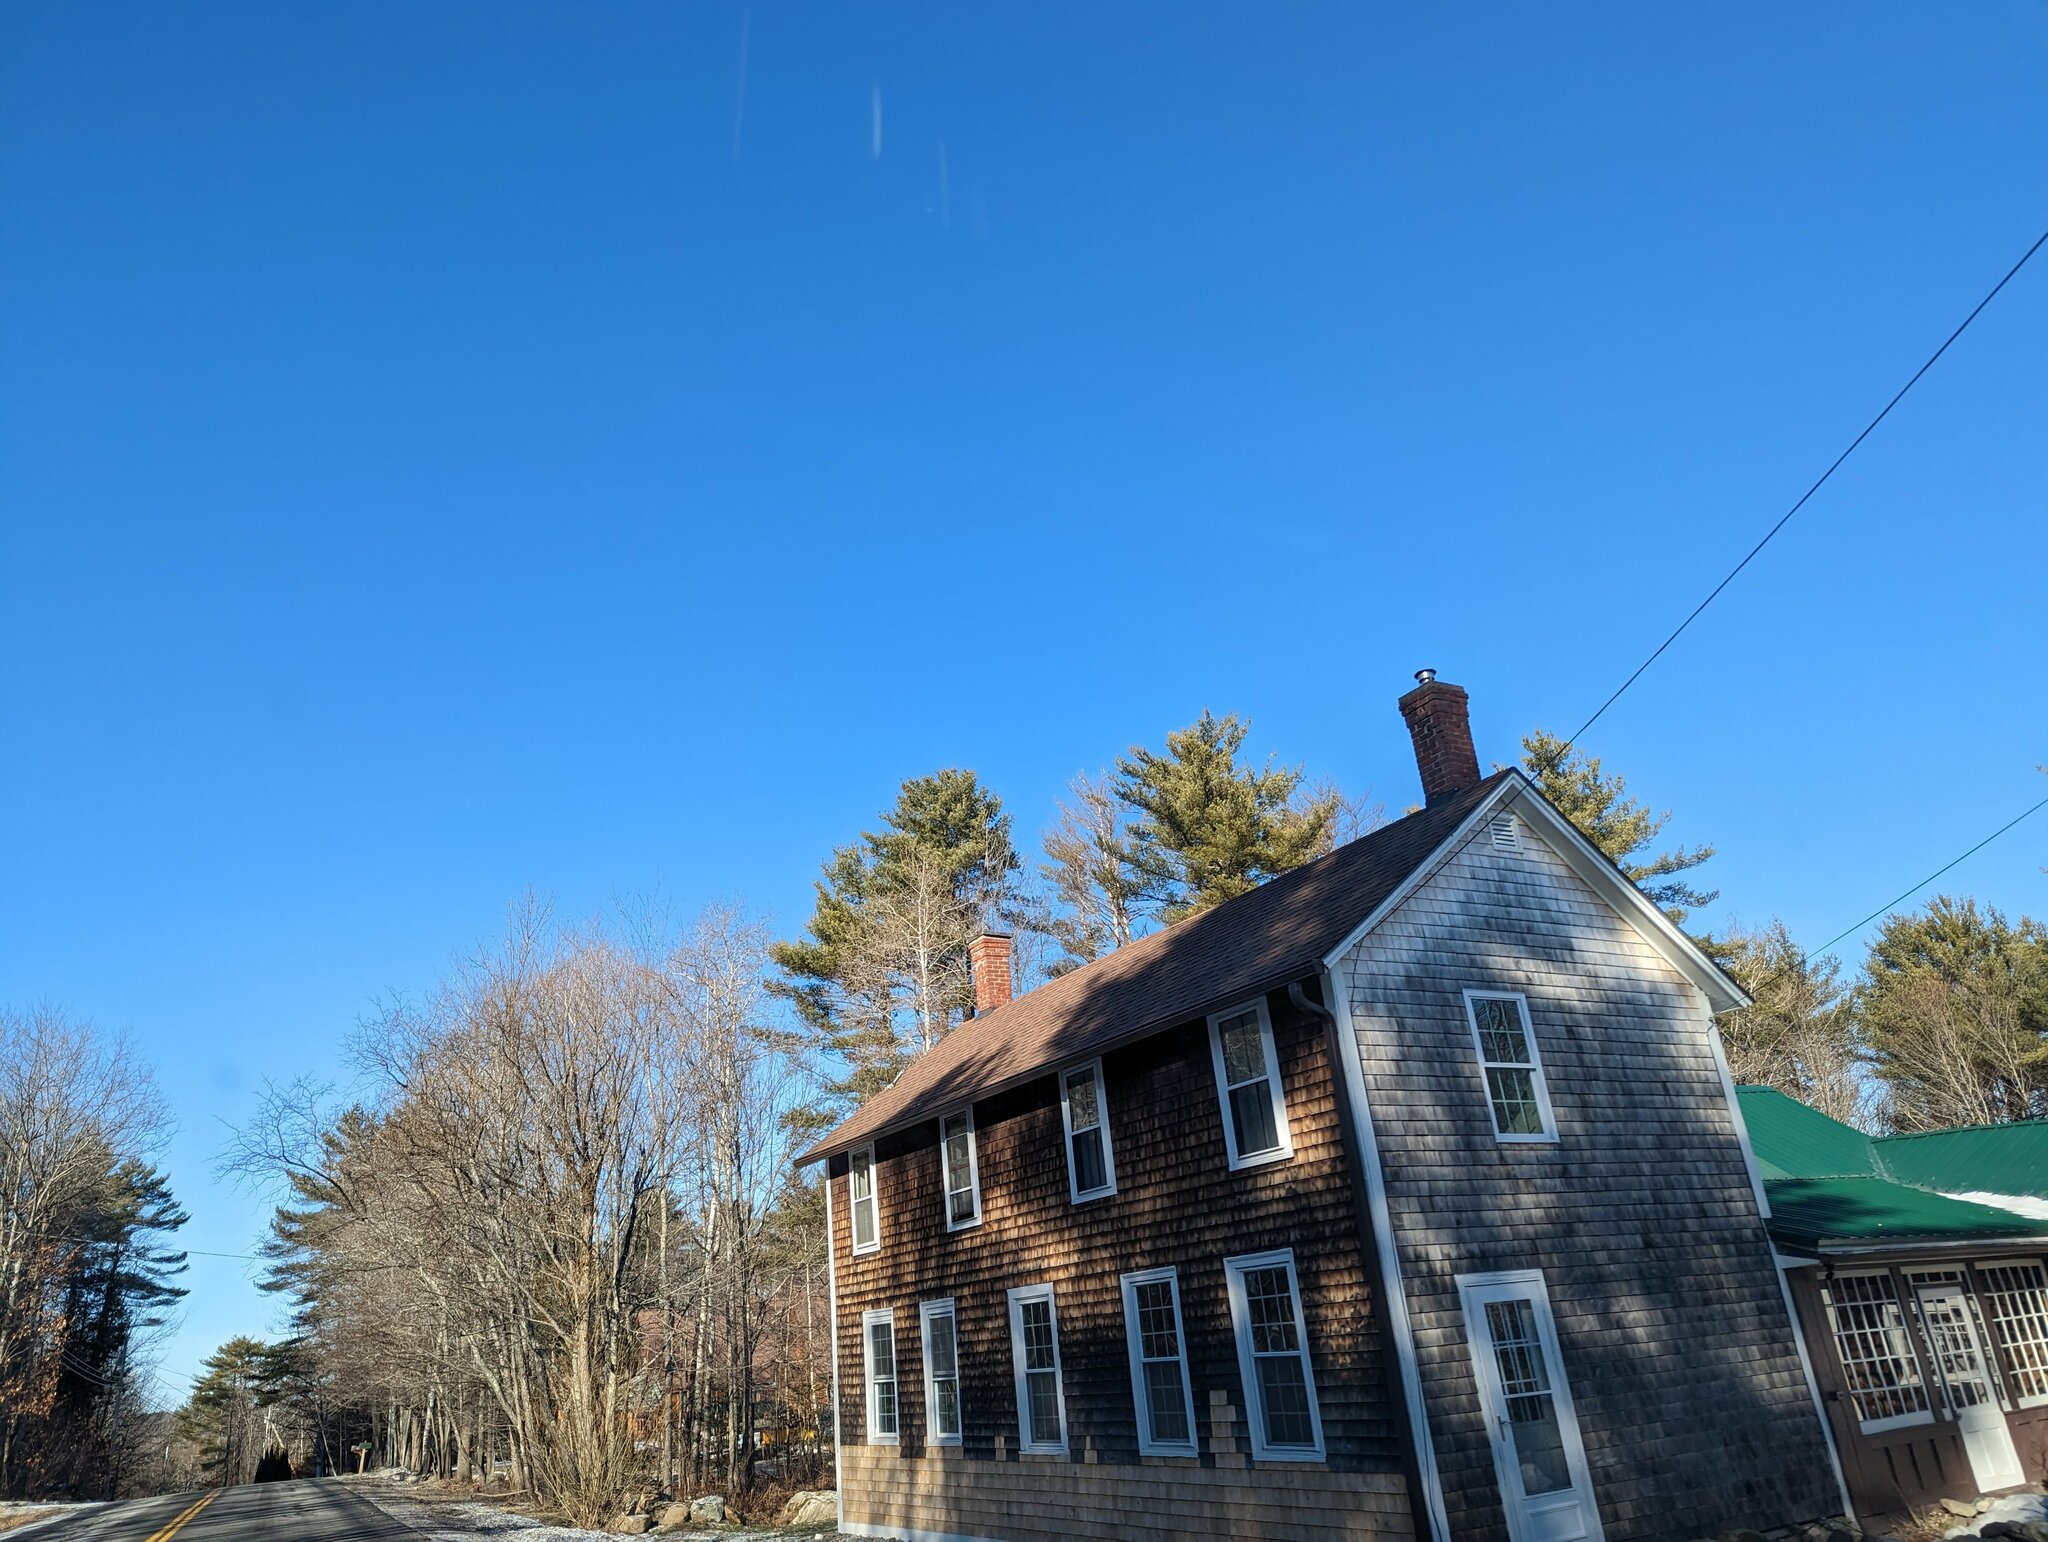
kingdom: Plantae
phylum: Tracheophyta
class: Pinopsida
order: Pinales
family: Pinaceae
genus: Pinus
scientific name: Pinus strobus
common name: Weymouth pine
